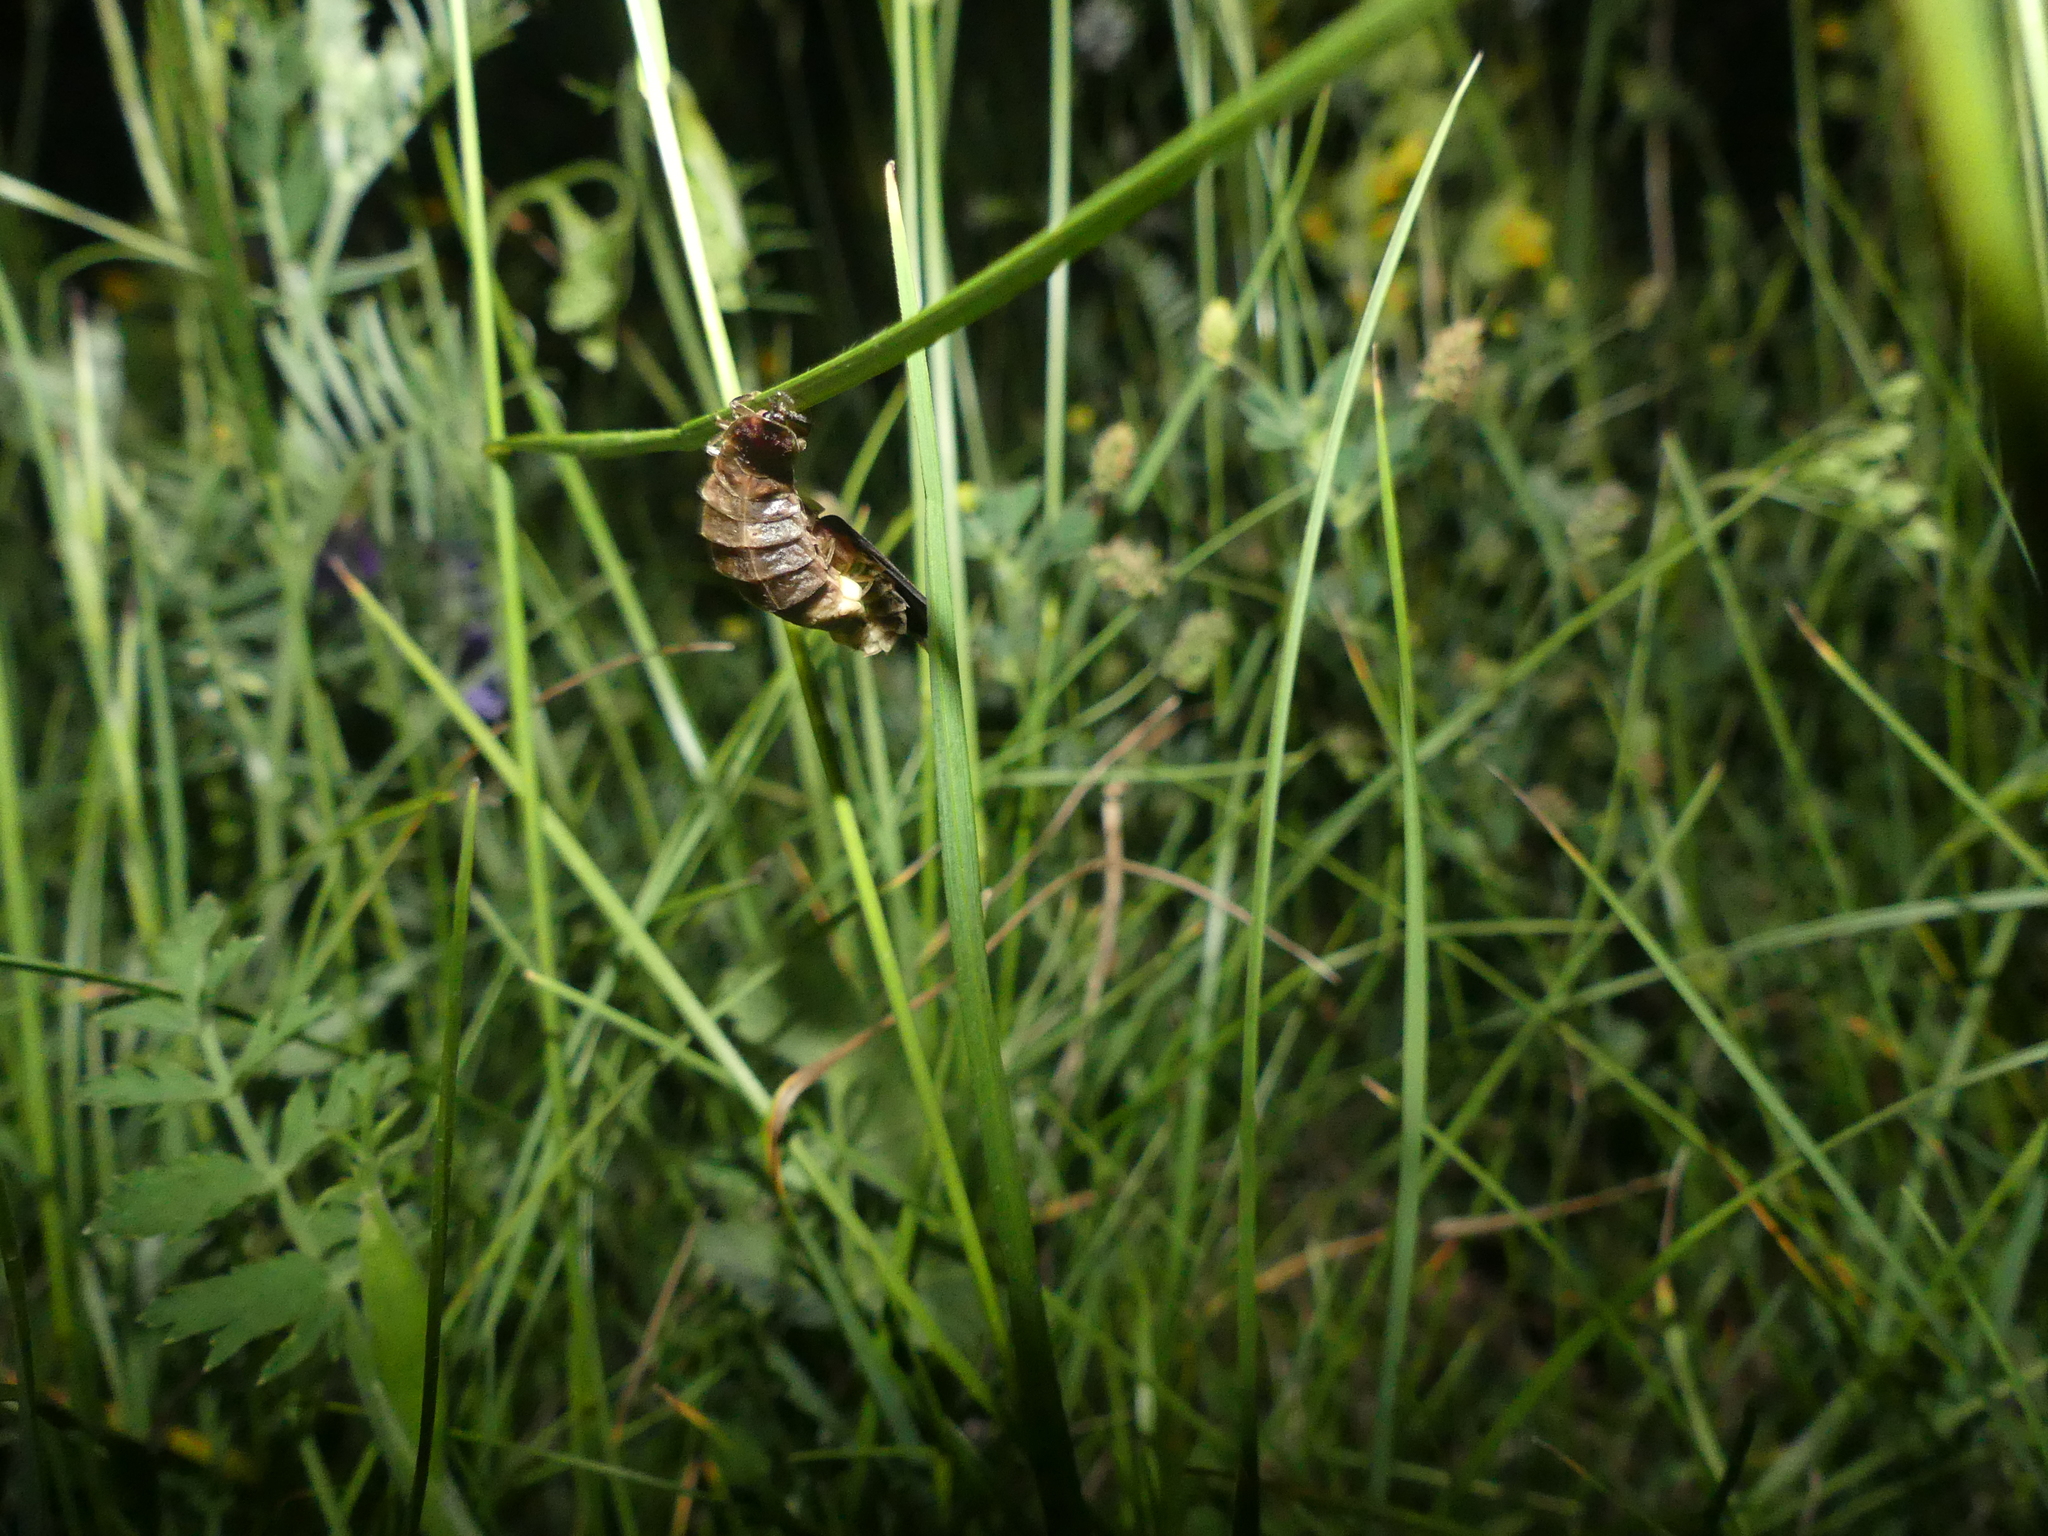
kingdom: Animalia
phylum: Arthropoda
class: Insecta
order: Coleoptera
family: Lampyridae
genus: Lampyris
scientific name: Lampyris noctiluca
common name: Glow-worm
